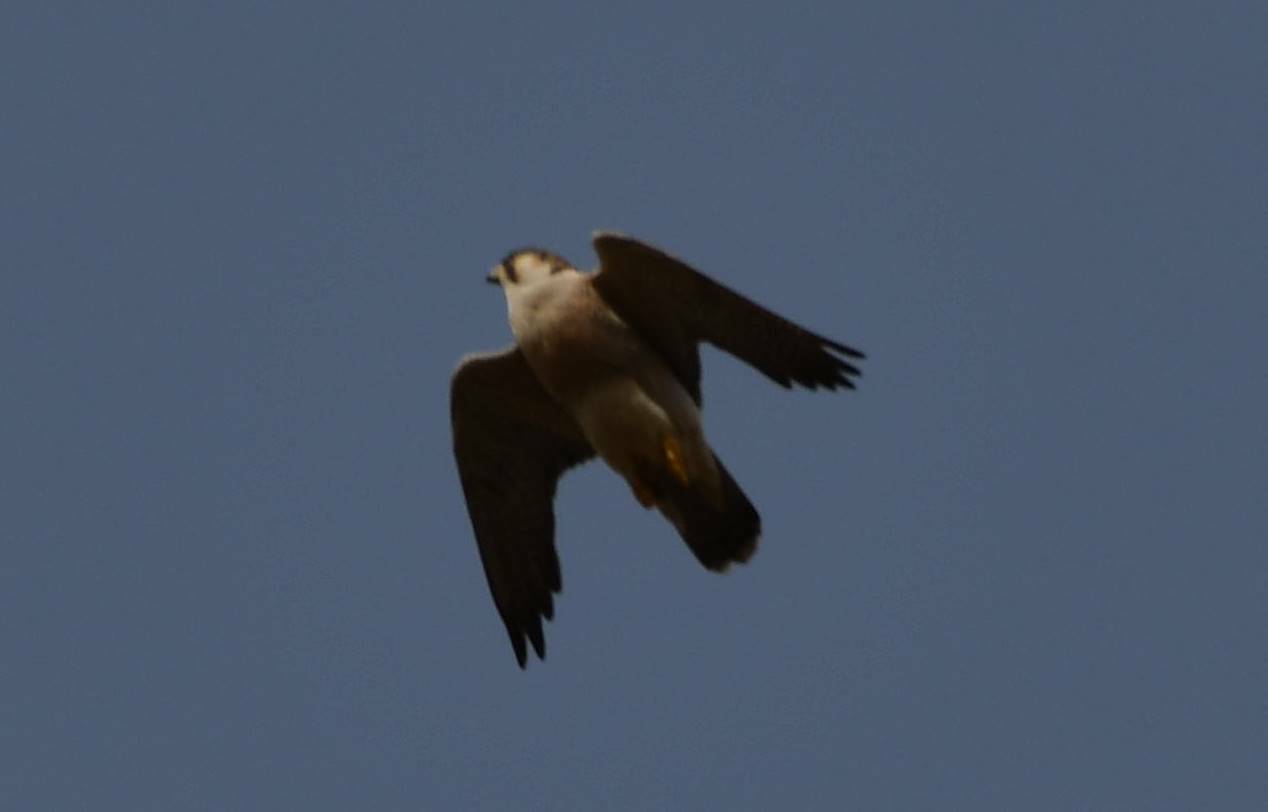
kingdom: Animalia
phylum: Chordata
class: Aves
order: Falconiformes
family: Falconidae
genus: Falco
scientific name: Falco peregrinus
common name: Peregrine falcon
